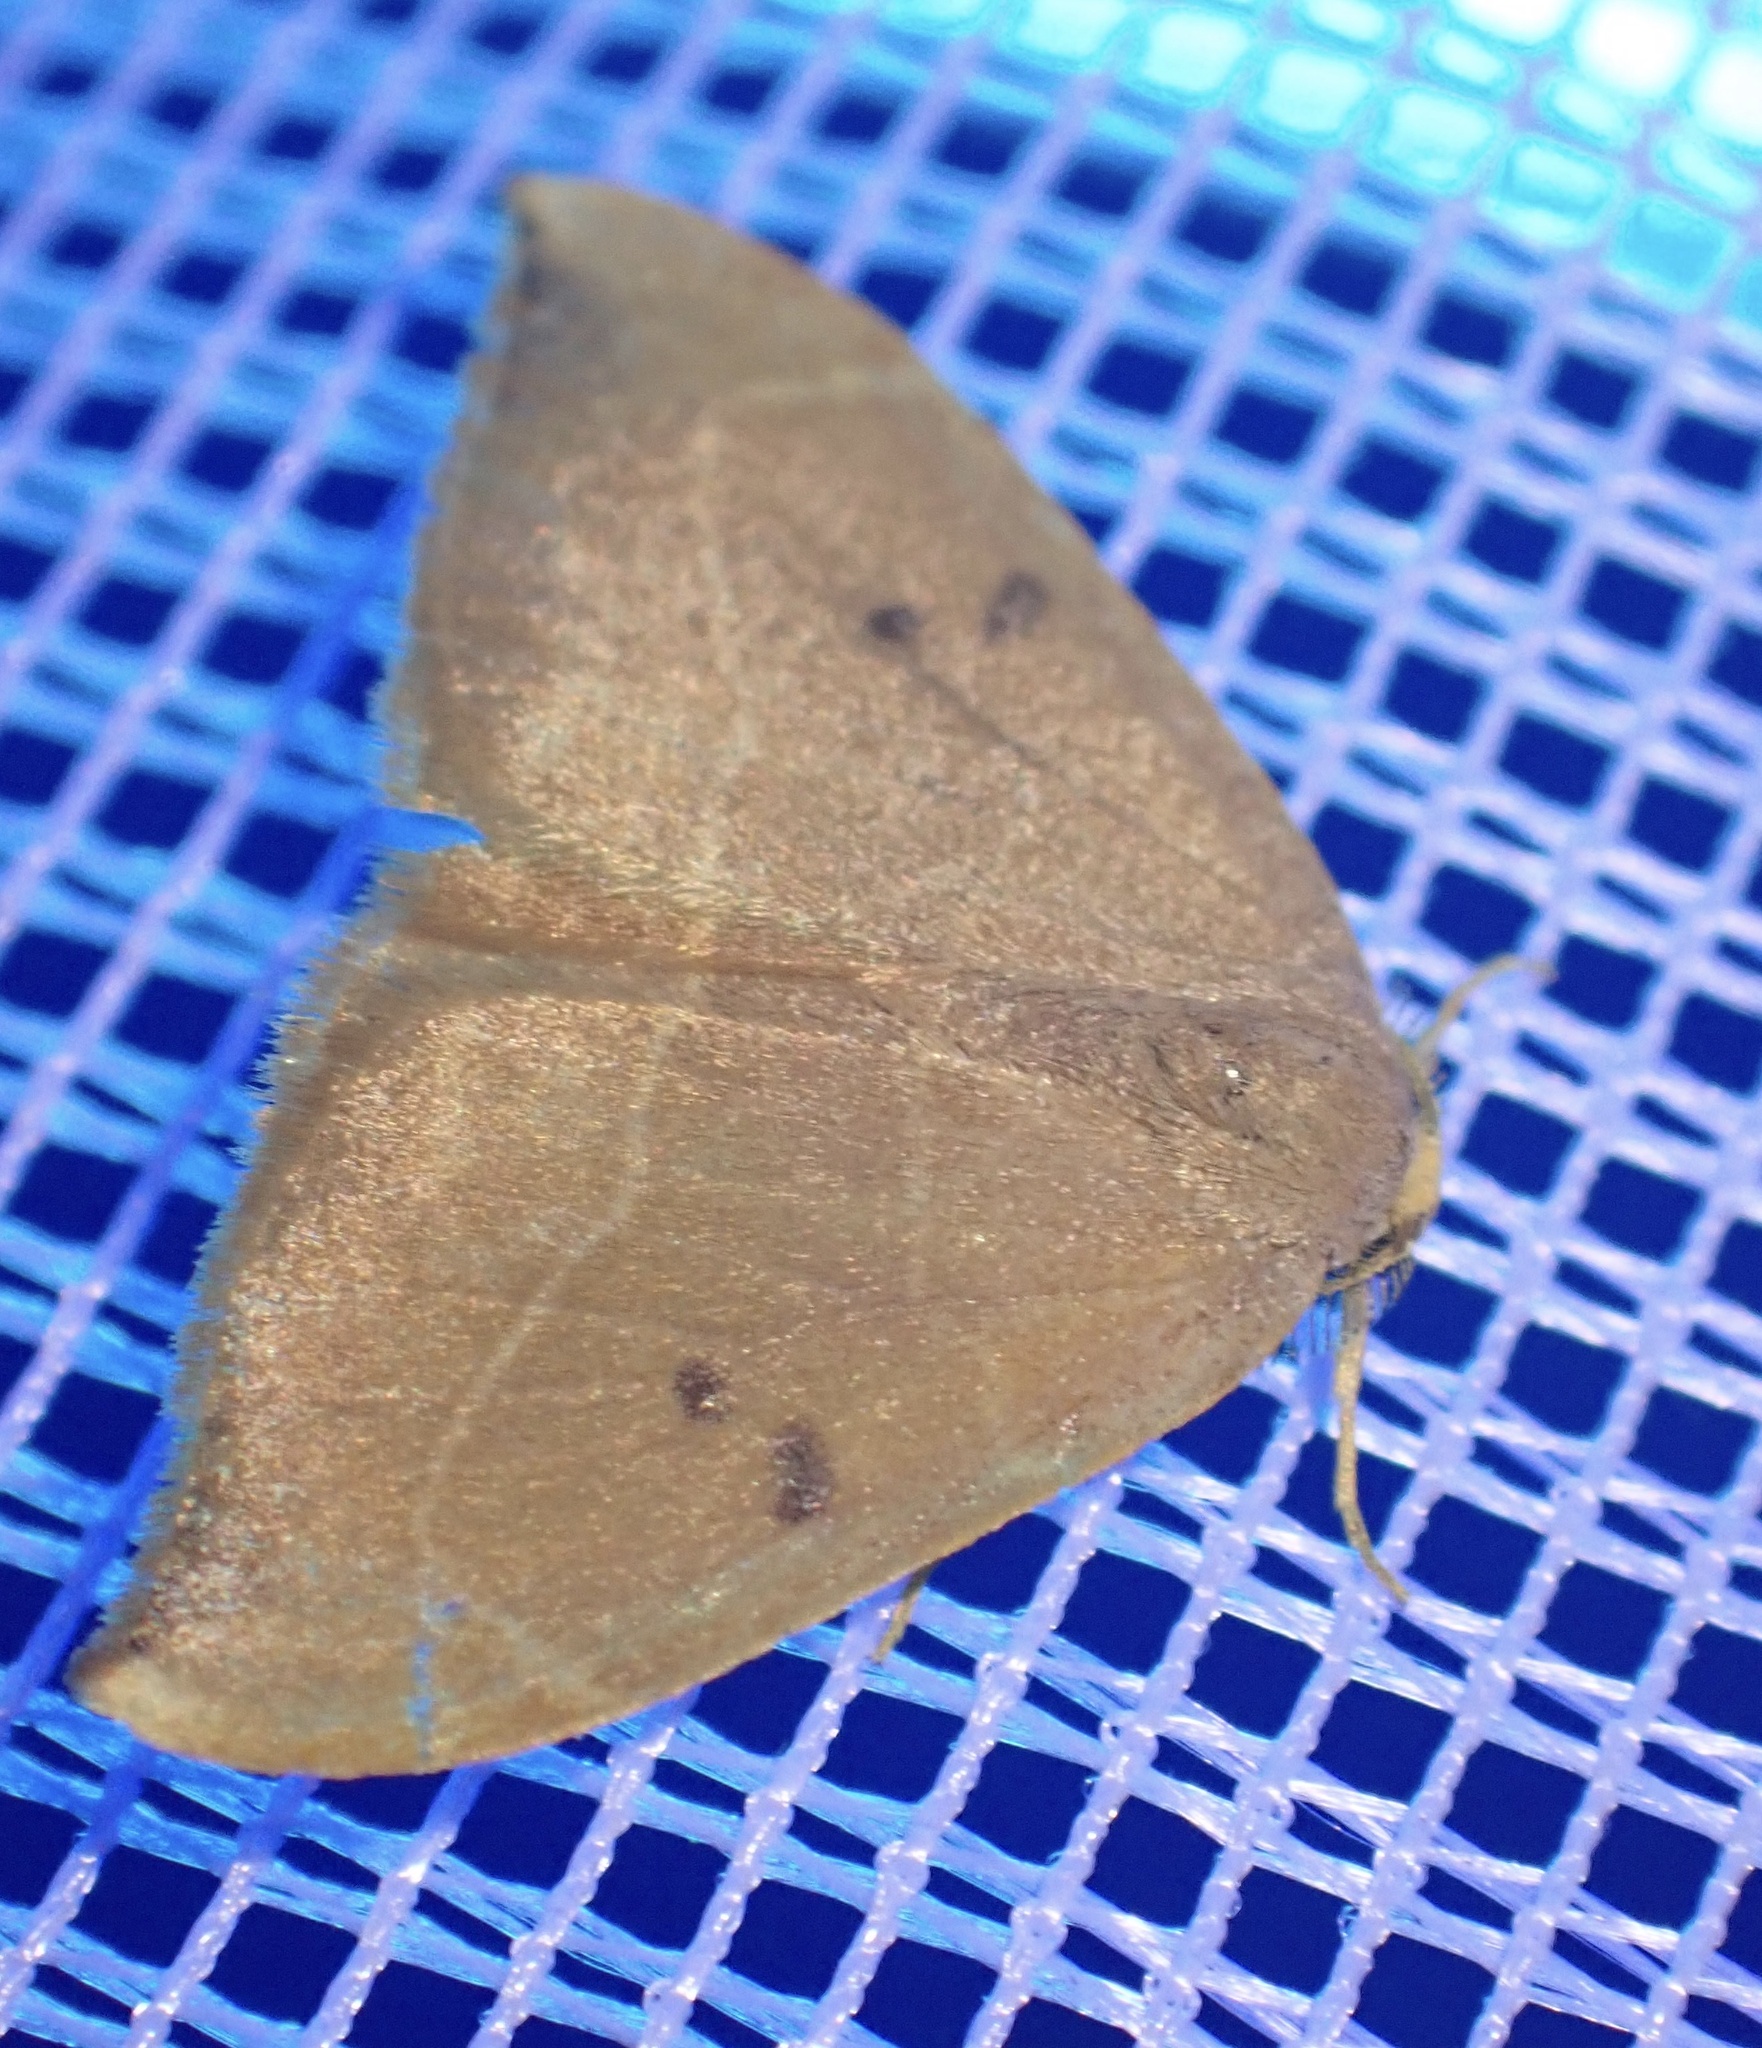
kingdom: Animalia
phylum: Arthropoda
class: Insecta
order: Lepidoptera
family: Drepanidae
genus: Watsonalla
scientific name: Watsonalla binaria
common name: Oak hook-tip
